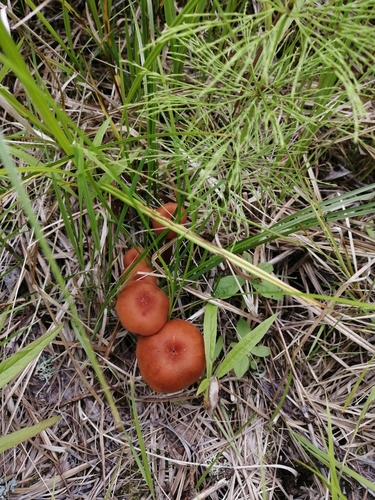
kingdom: Fungi
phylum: Basidiomycota
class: Agaricomycetes
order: Agaricales
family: Hydnangiaceae
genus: Laccaria
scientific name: Laccaria proxima
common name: Scurfy deceiver
